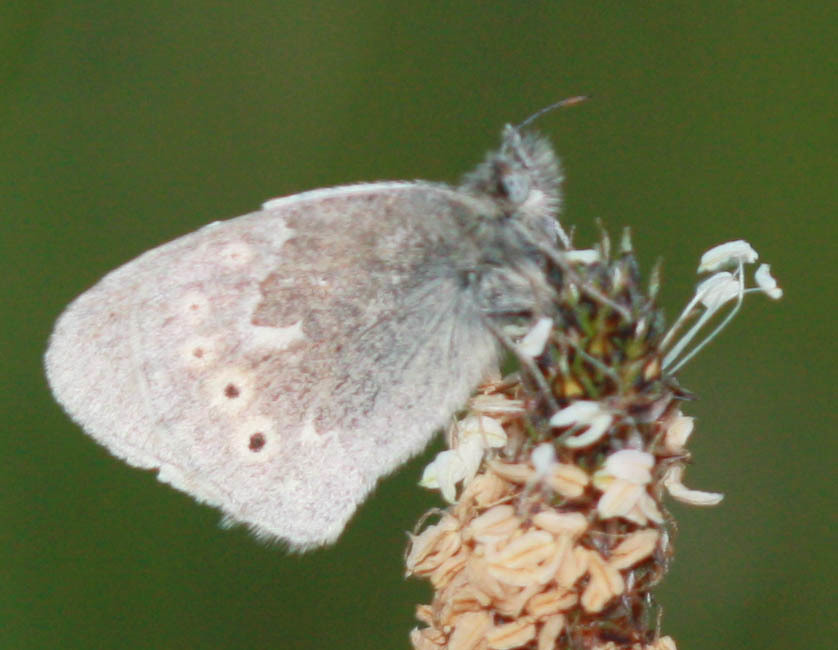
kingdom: Animalia
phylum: Arthropoda
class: Insecta
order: Lepidoptera
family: Nymphalidae
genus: Coenonympha
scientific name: Coenonympha california
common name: Common ringlet
